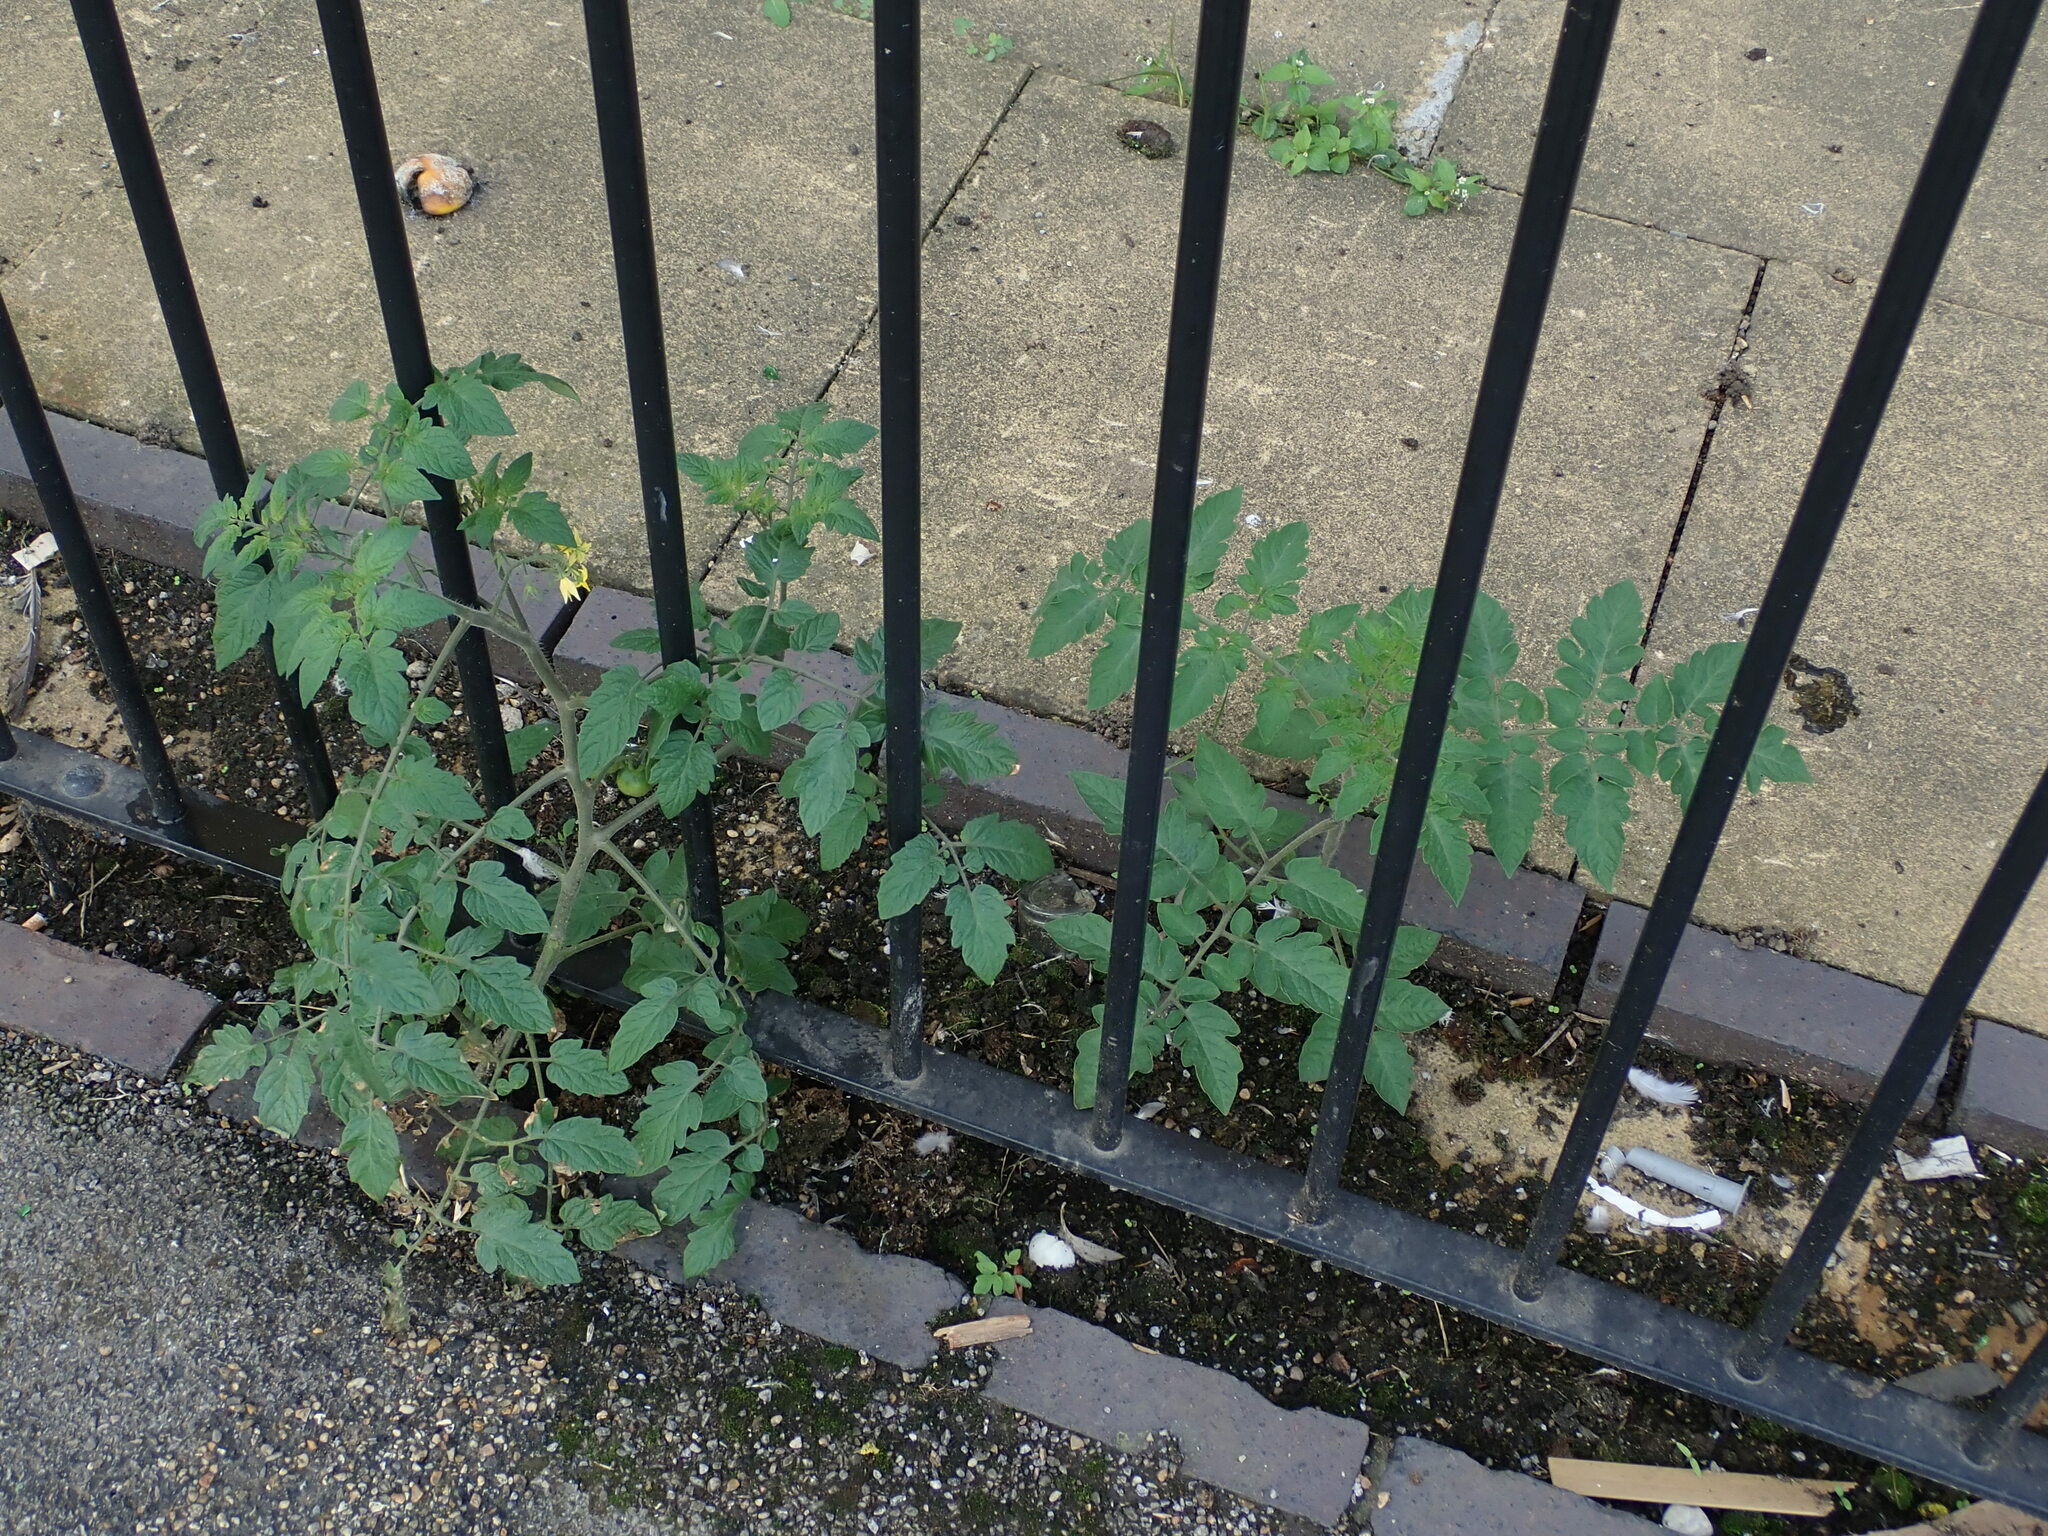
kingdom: Plantae
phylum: Tracheophyta
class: Magnoliopsida
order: Solanales
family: Solanaceae
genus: Solanum
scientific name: Solanum lycopersicum
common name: Garden tomato
